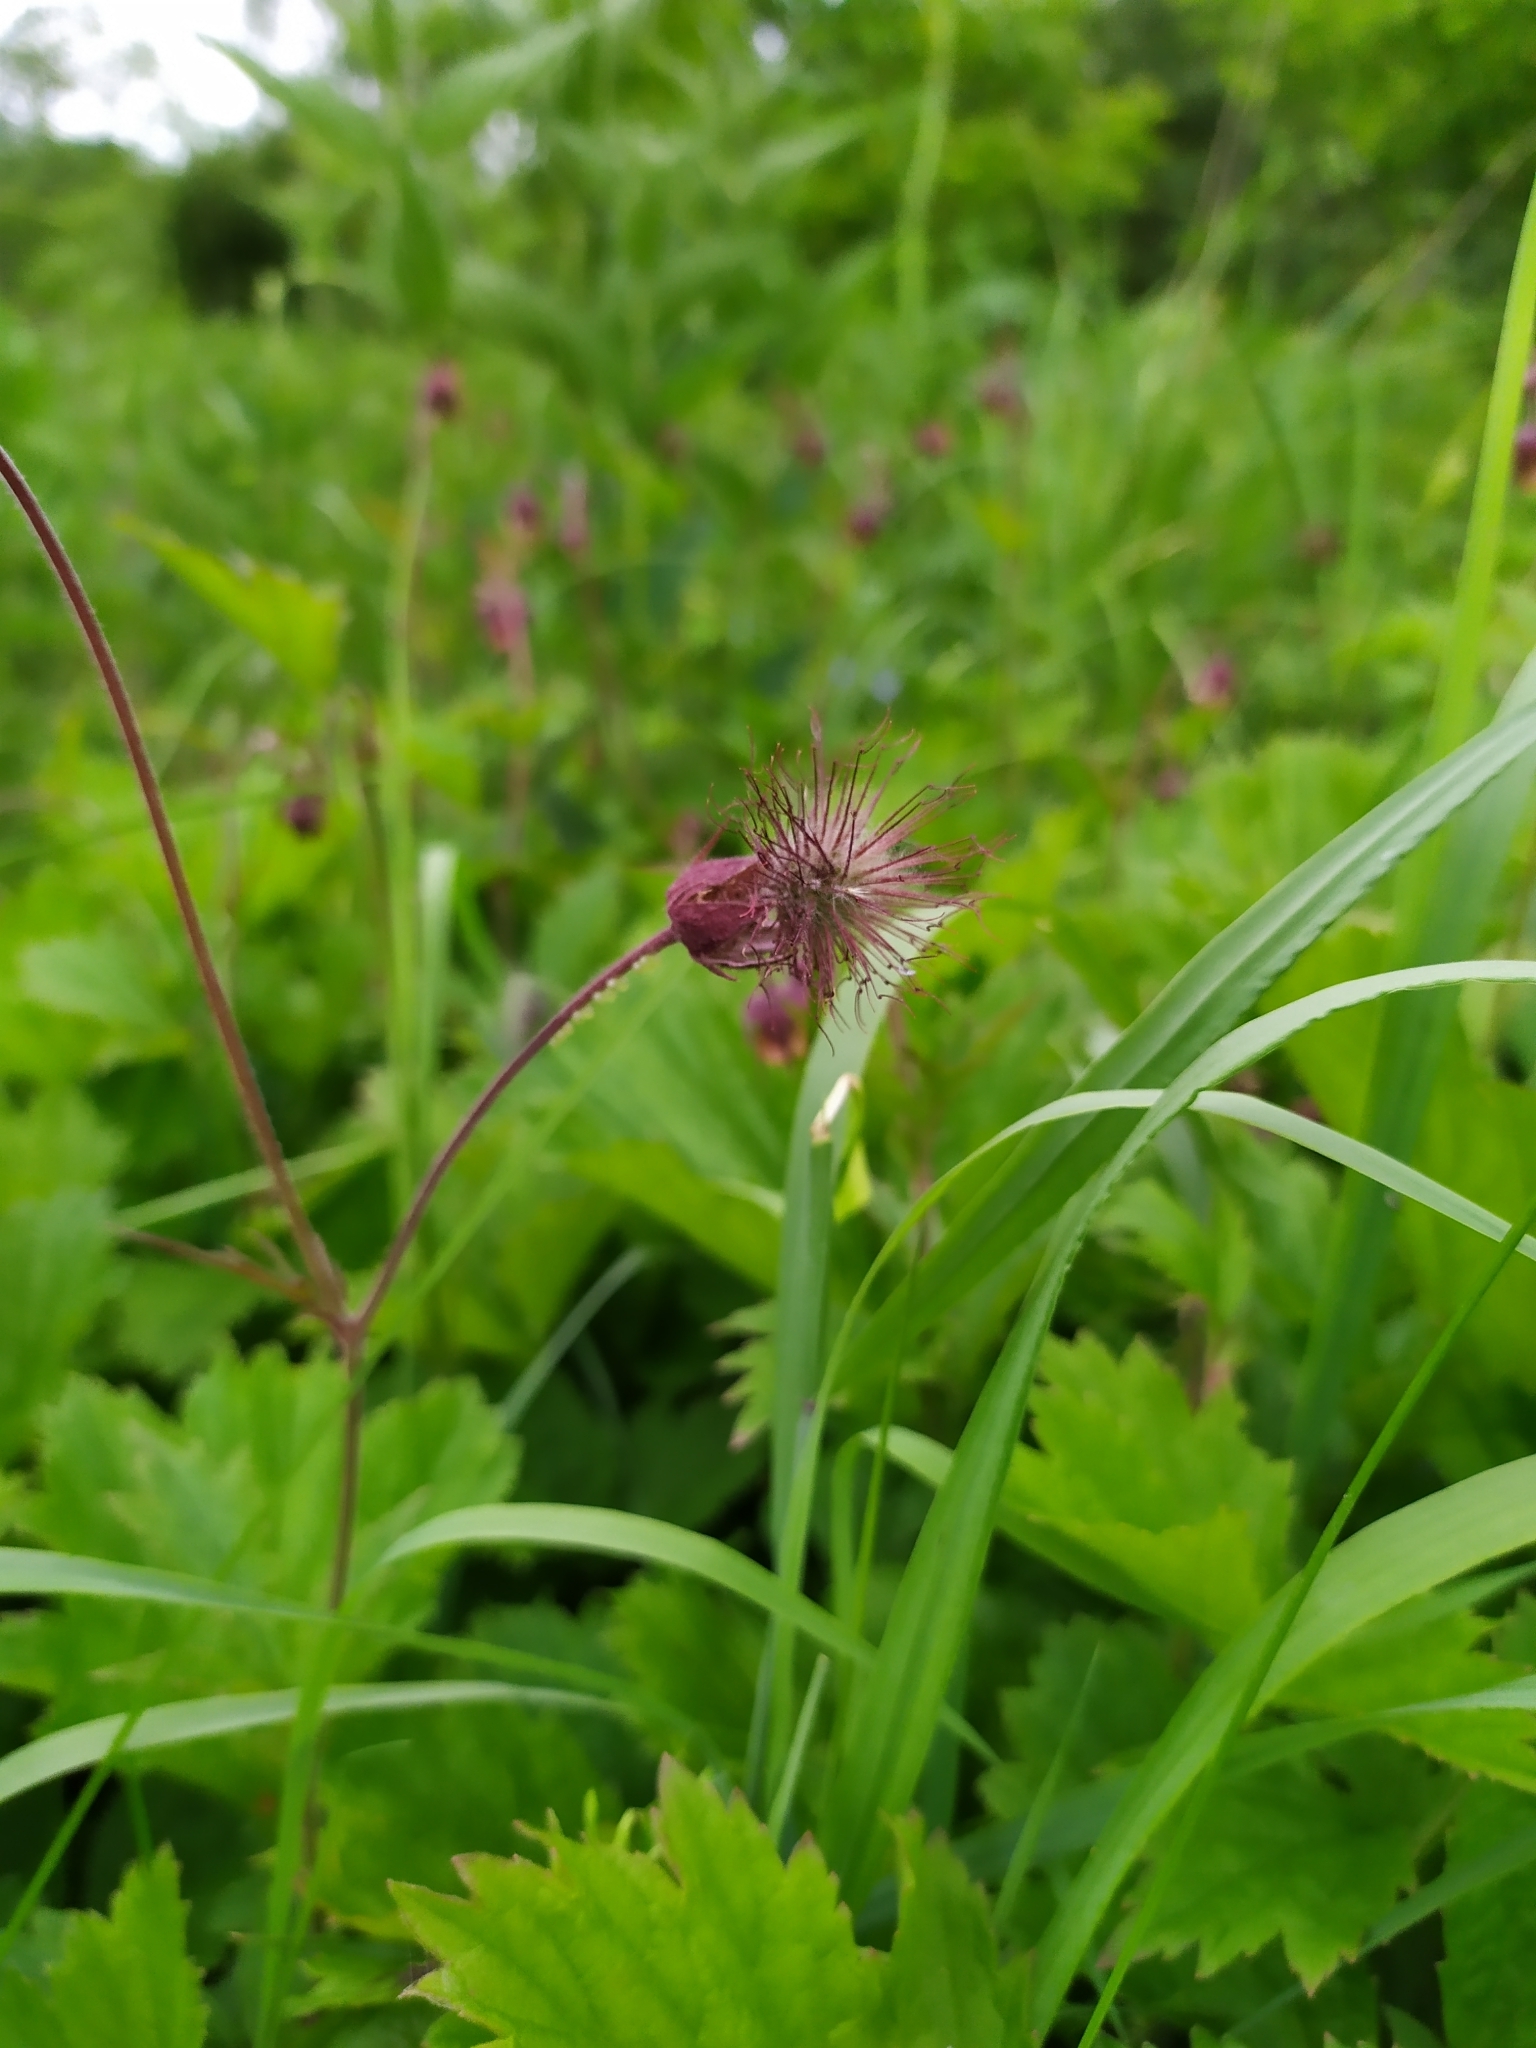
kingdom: Plantae
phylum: Tracheophyta
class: Magnoliopsida
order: Rosales
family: Rosaceae
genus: Geum
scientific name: Geum rivale
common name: Water avens
